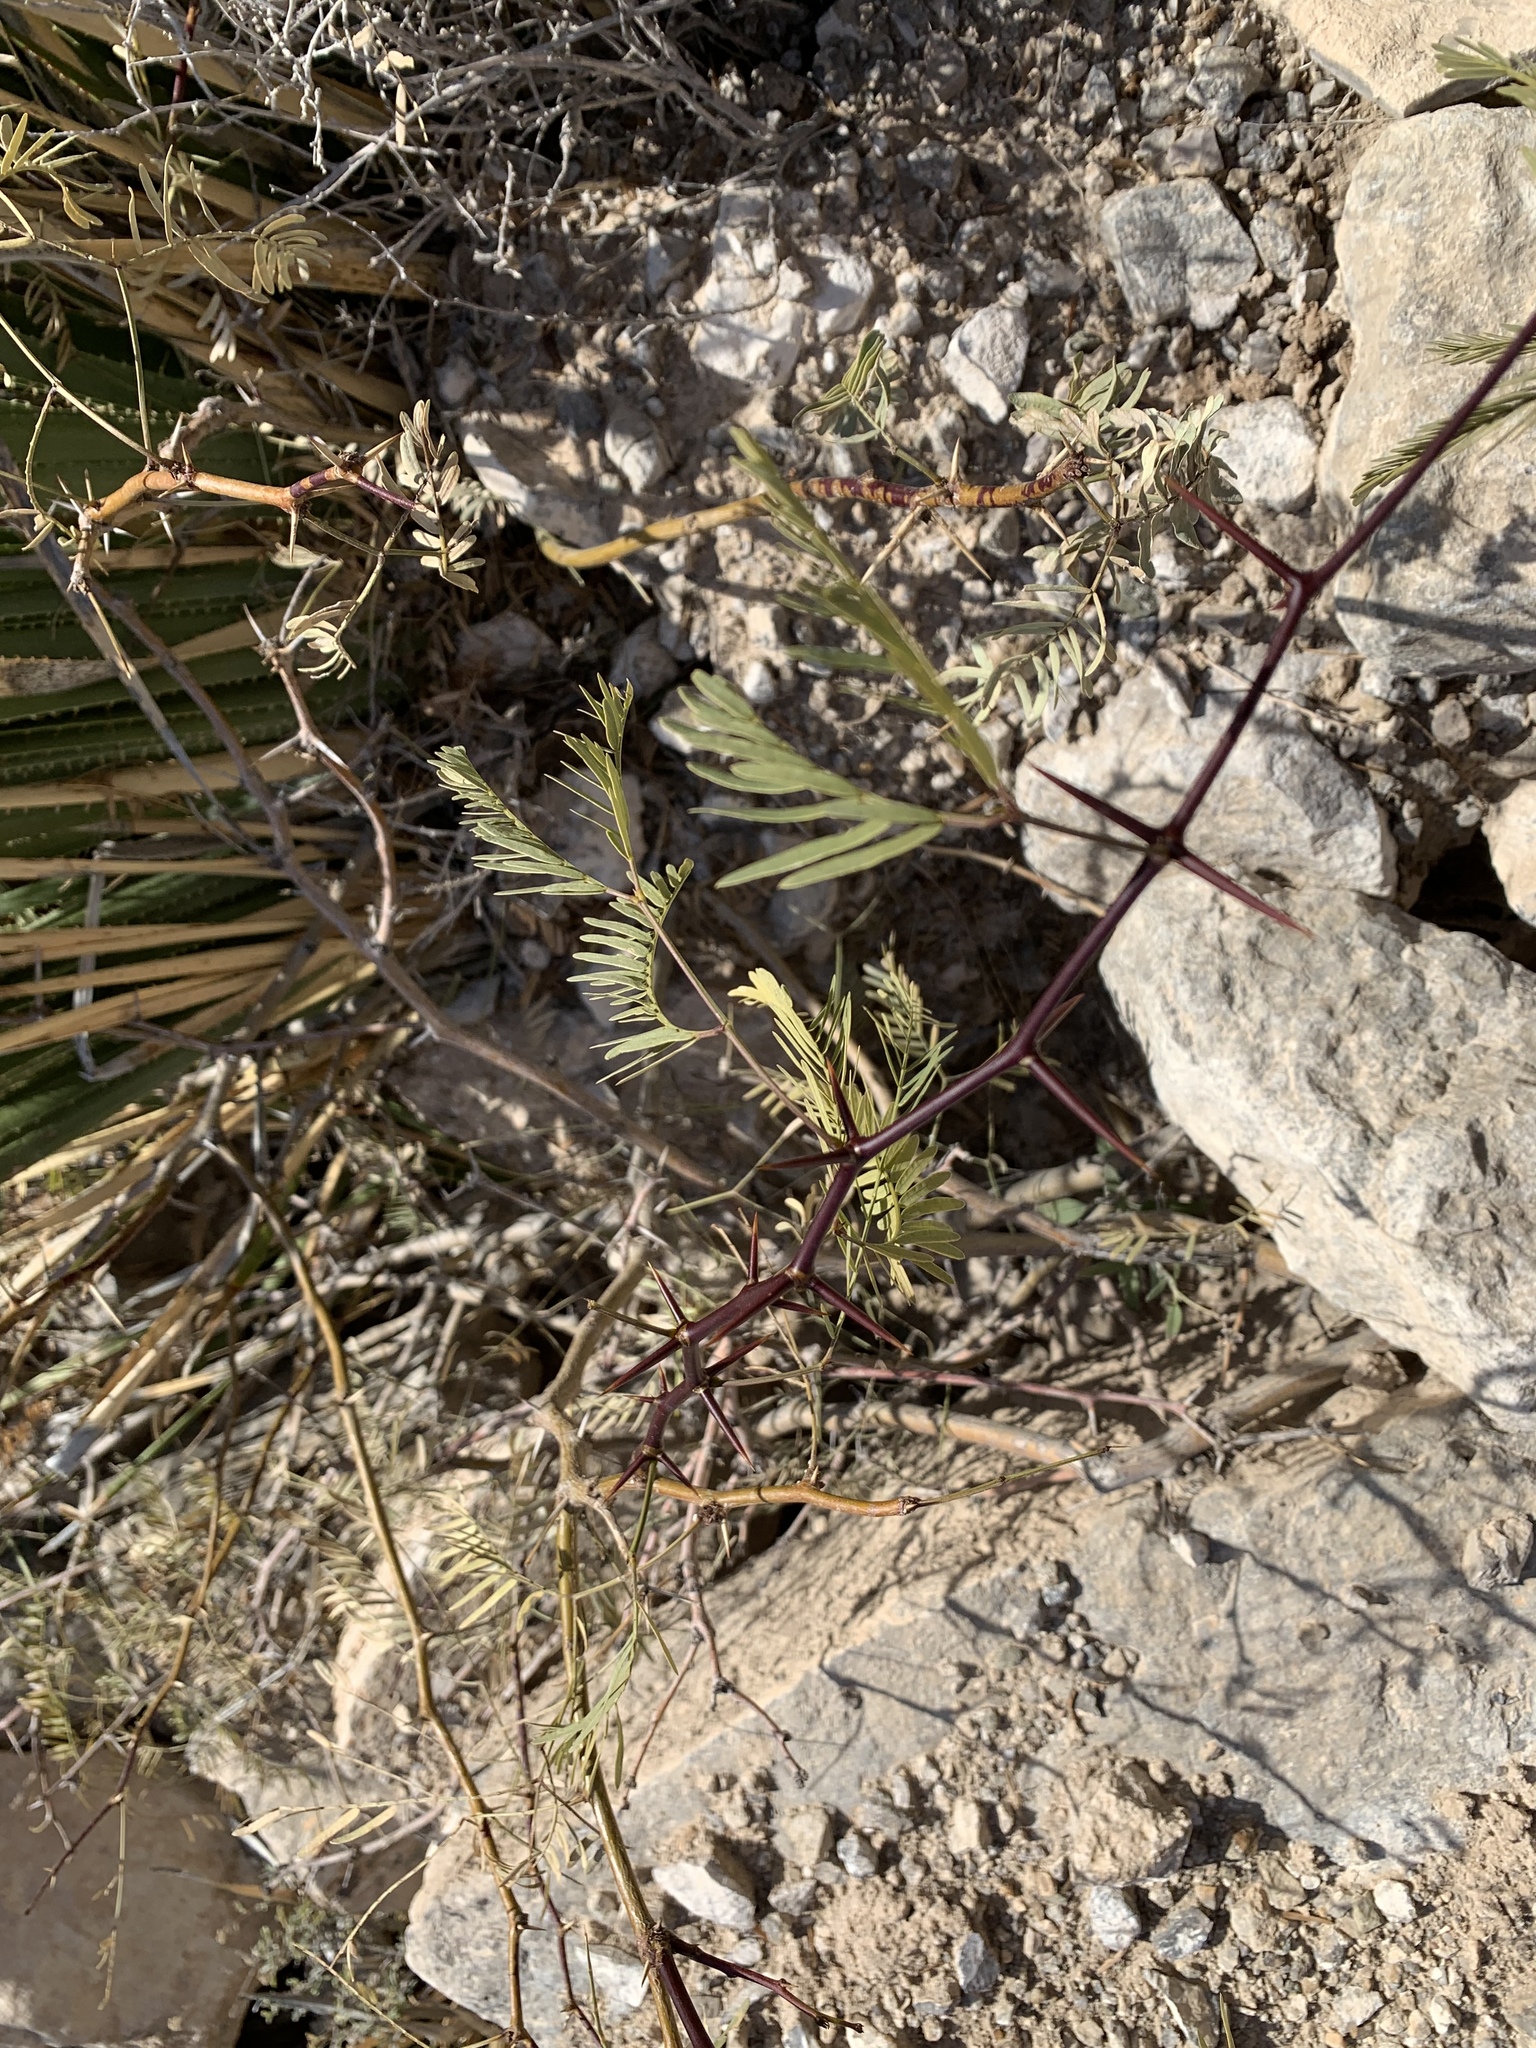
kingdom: Plantae
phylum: Tracheophyta
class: Magnoliopsida
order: Fabales
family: Fabaceae
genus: Prosopis
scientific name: Prosopis glandulosa
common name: Honey mesquite
